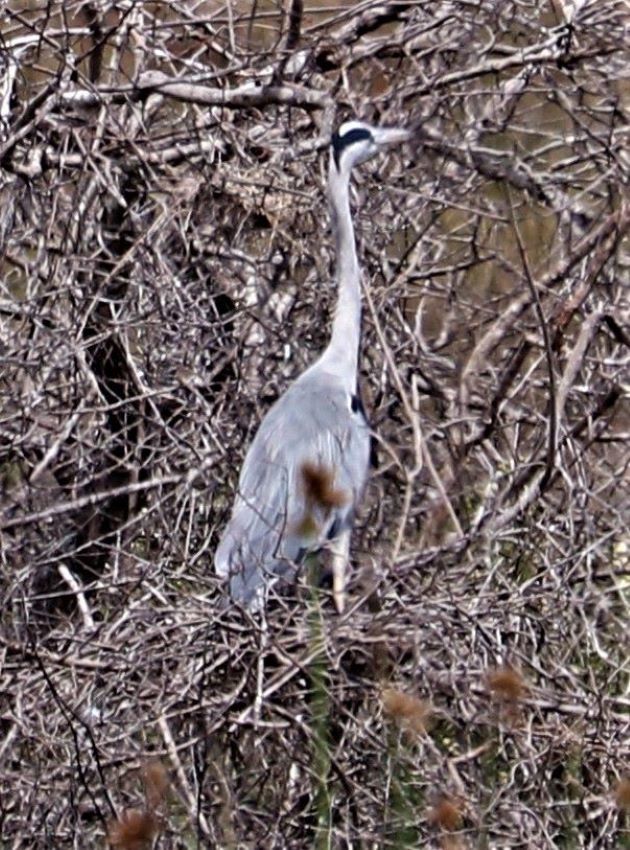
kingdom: Animalia
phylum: Chordata
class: Aves
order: Pelecaniformes
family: Ardeidae
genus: Ardea
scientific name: Ardea cinerea
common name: Grey heron
